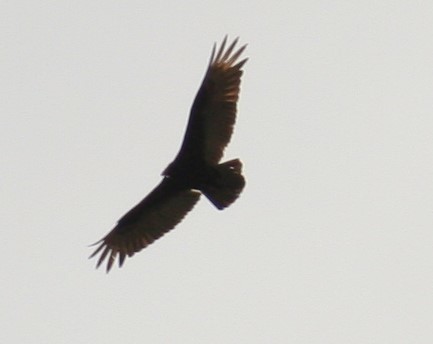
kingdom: Animalia
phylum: Chordata
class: Aves
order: Accipitriformes
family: Cathartidae
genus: Cathartes
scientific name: Cathartes aura
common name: Turkey vulture
